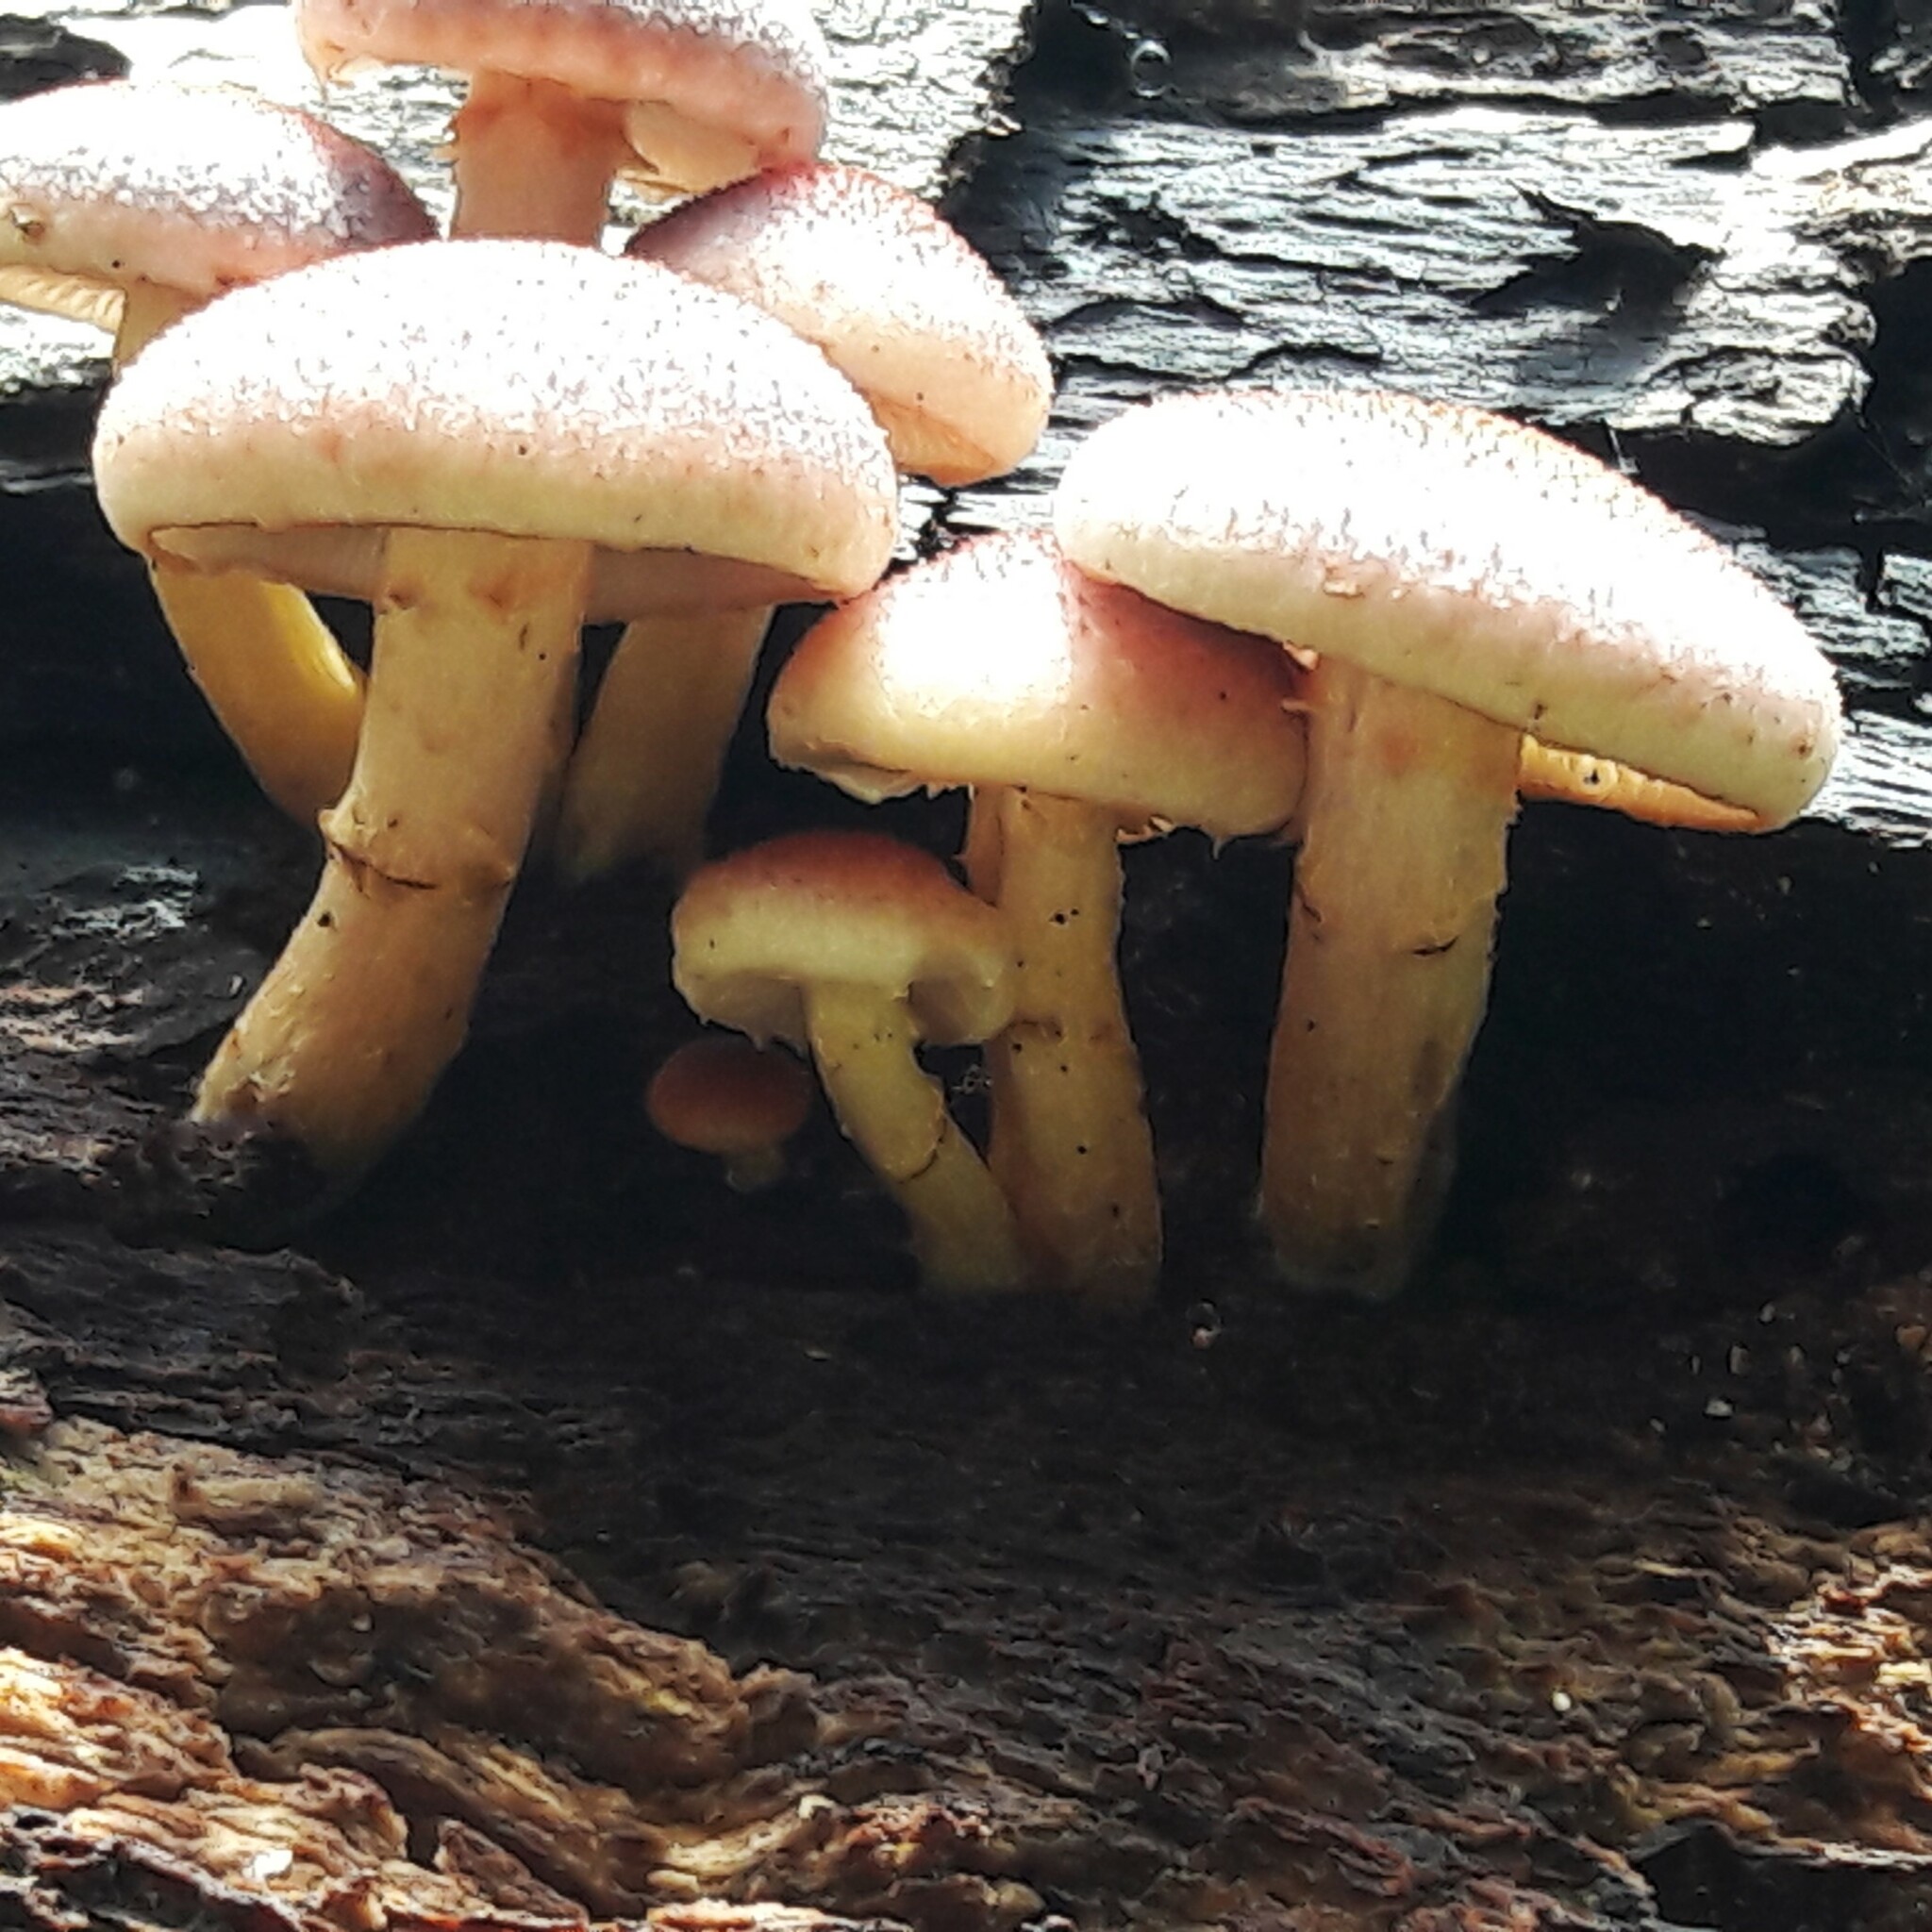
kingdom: Fungi
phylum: Basidiomycota
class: Agaricomycetes
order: Agaricales
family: Hymenogastraceae
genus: Gymnopilus
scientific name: Gymnopilus luteofolius
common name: Yellow-gilled gymnopilus
